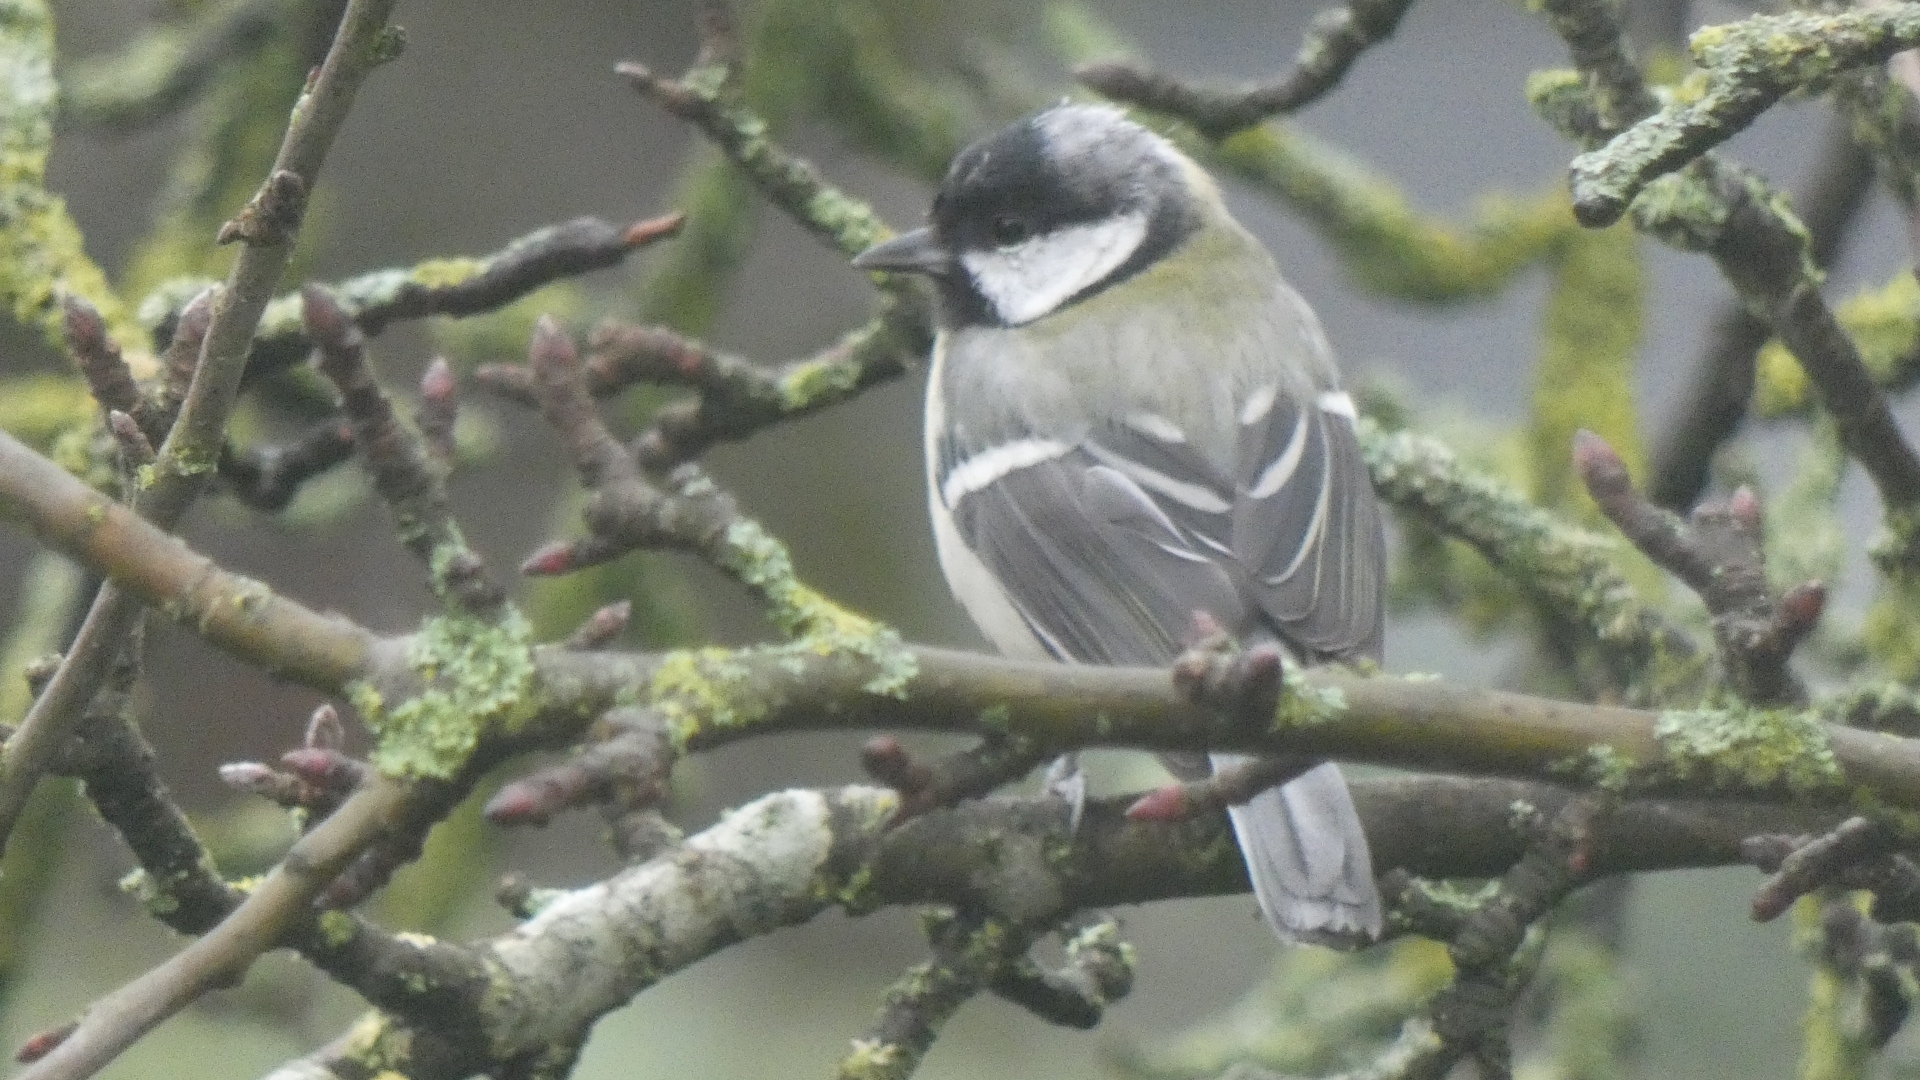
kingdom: Animalia
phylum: Chordata
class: Aves
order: Passeriformes
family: Paridae
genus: Parus
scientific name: Parus major
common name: Great tit
